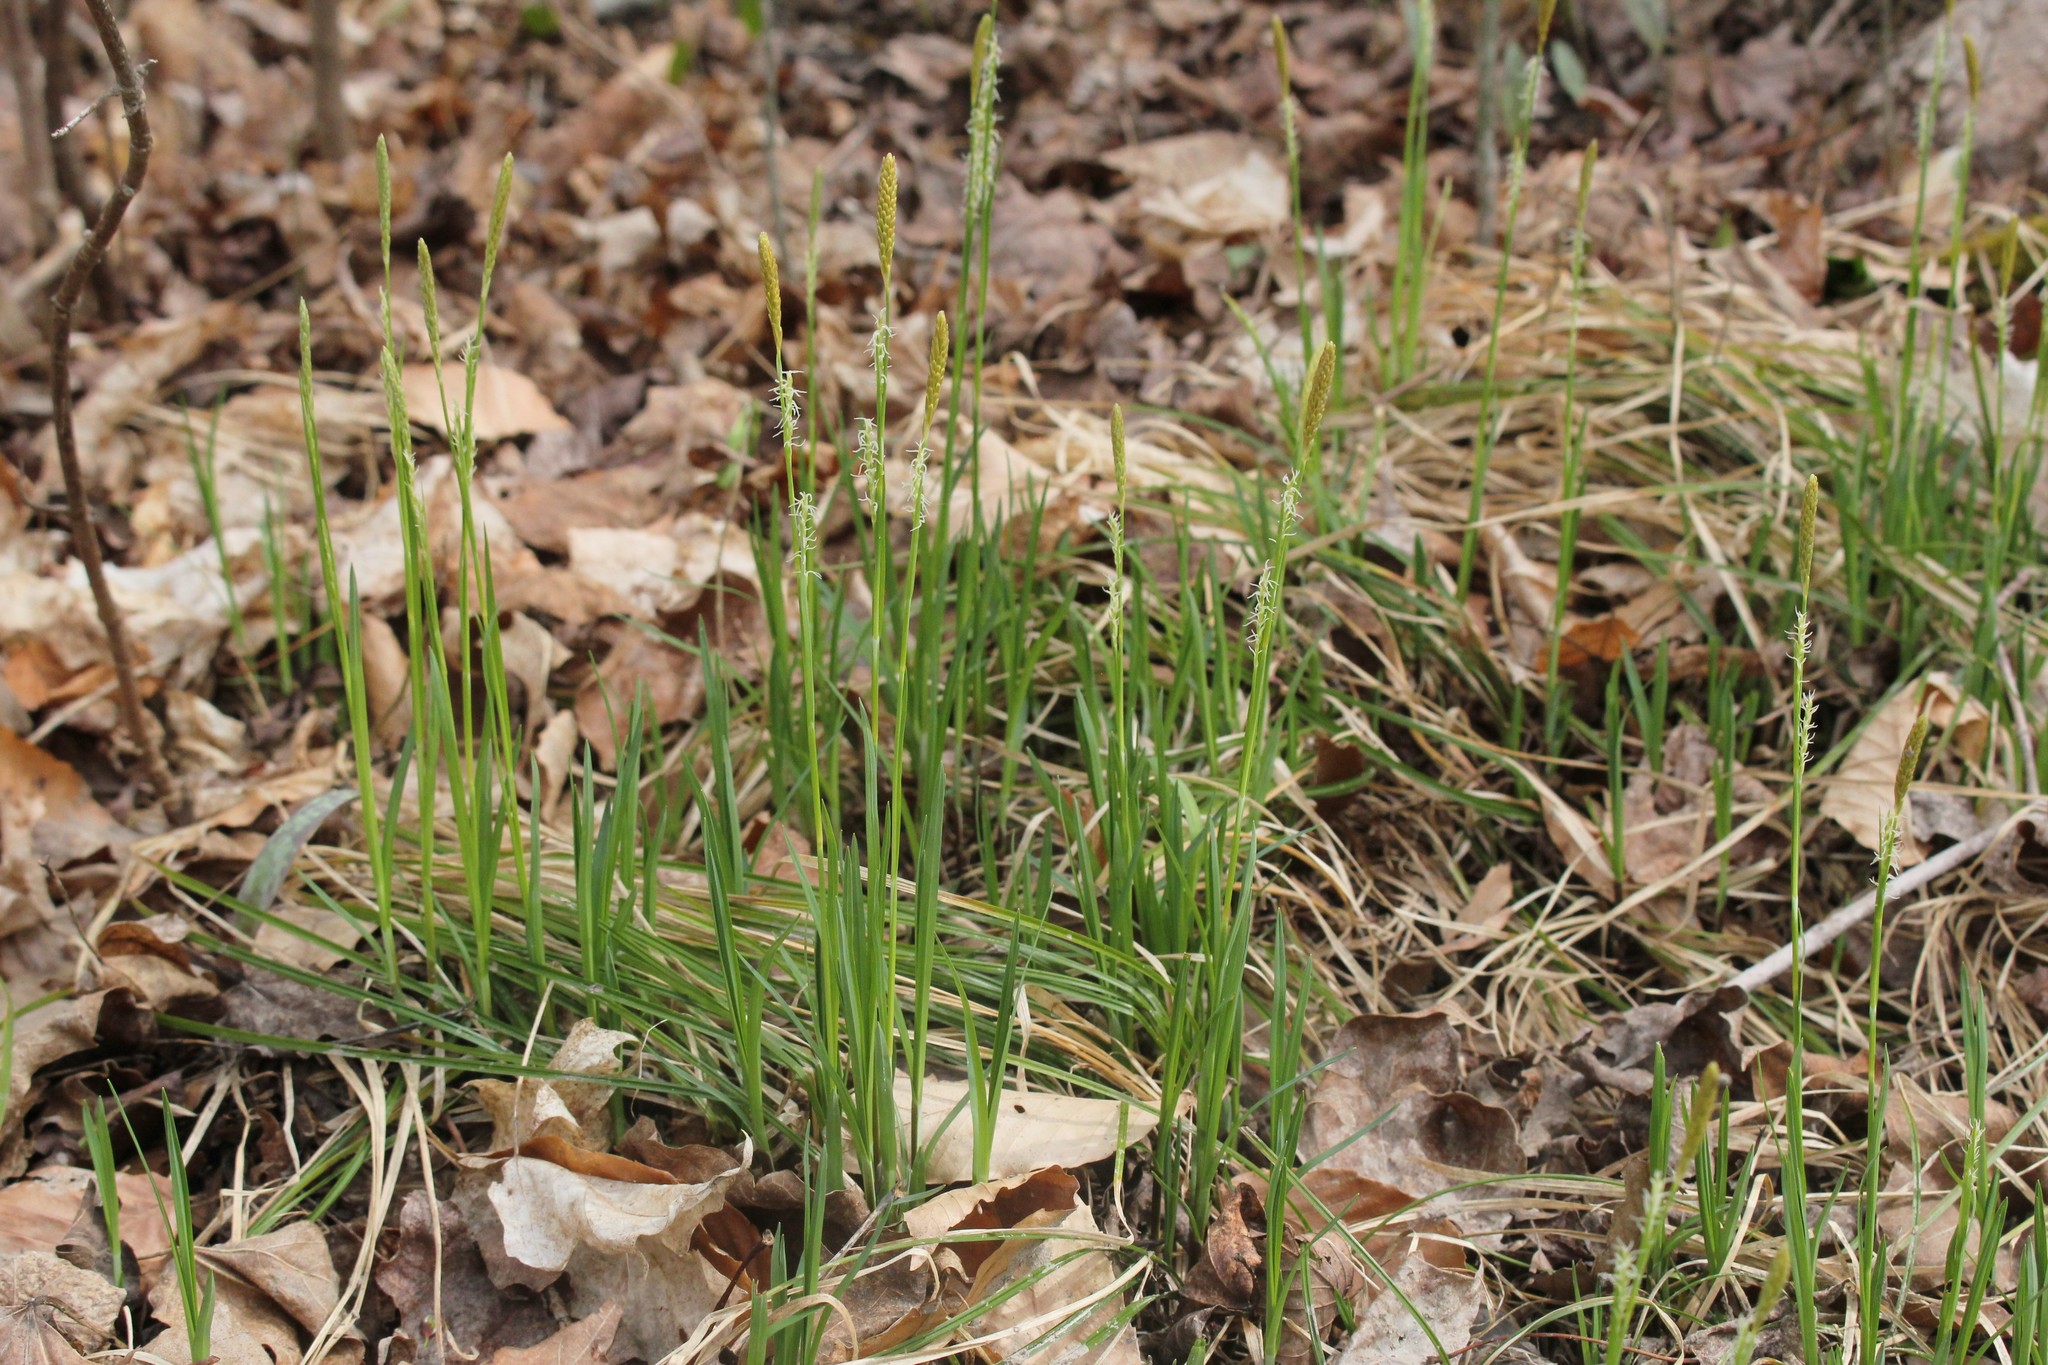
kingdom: Plantae
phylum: Tracheophyta
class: Liliopsida
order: Poales
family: Cyperaceae
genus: Carex
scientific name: Carex woodii
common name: Wood's sedge
